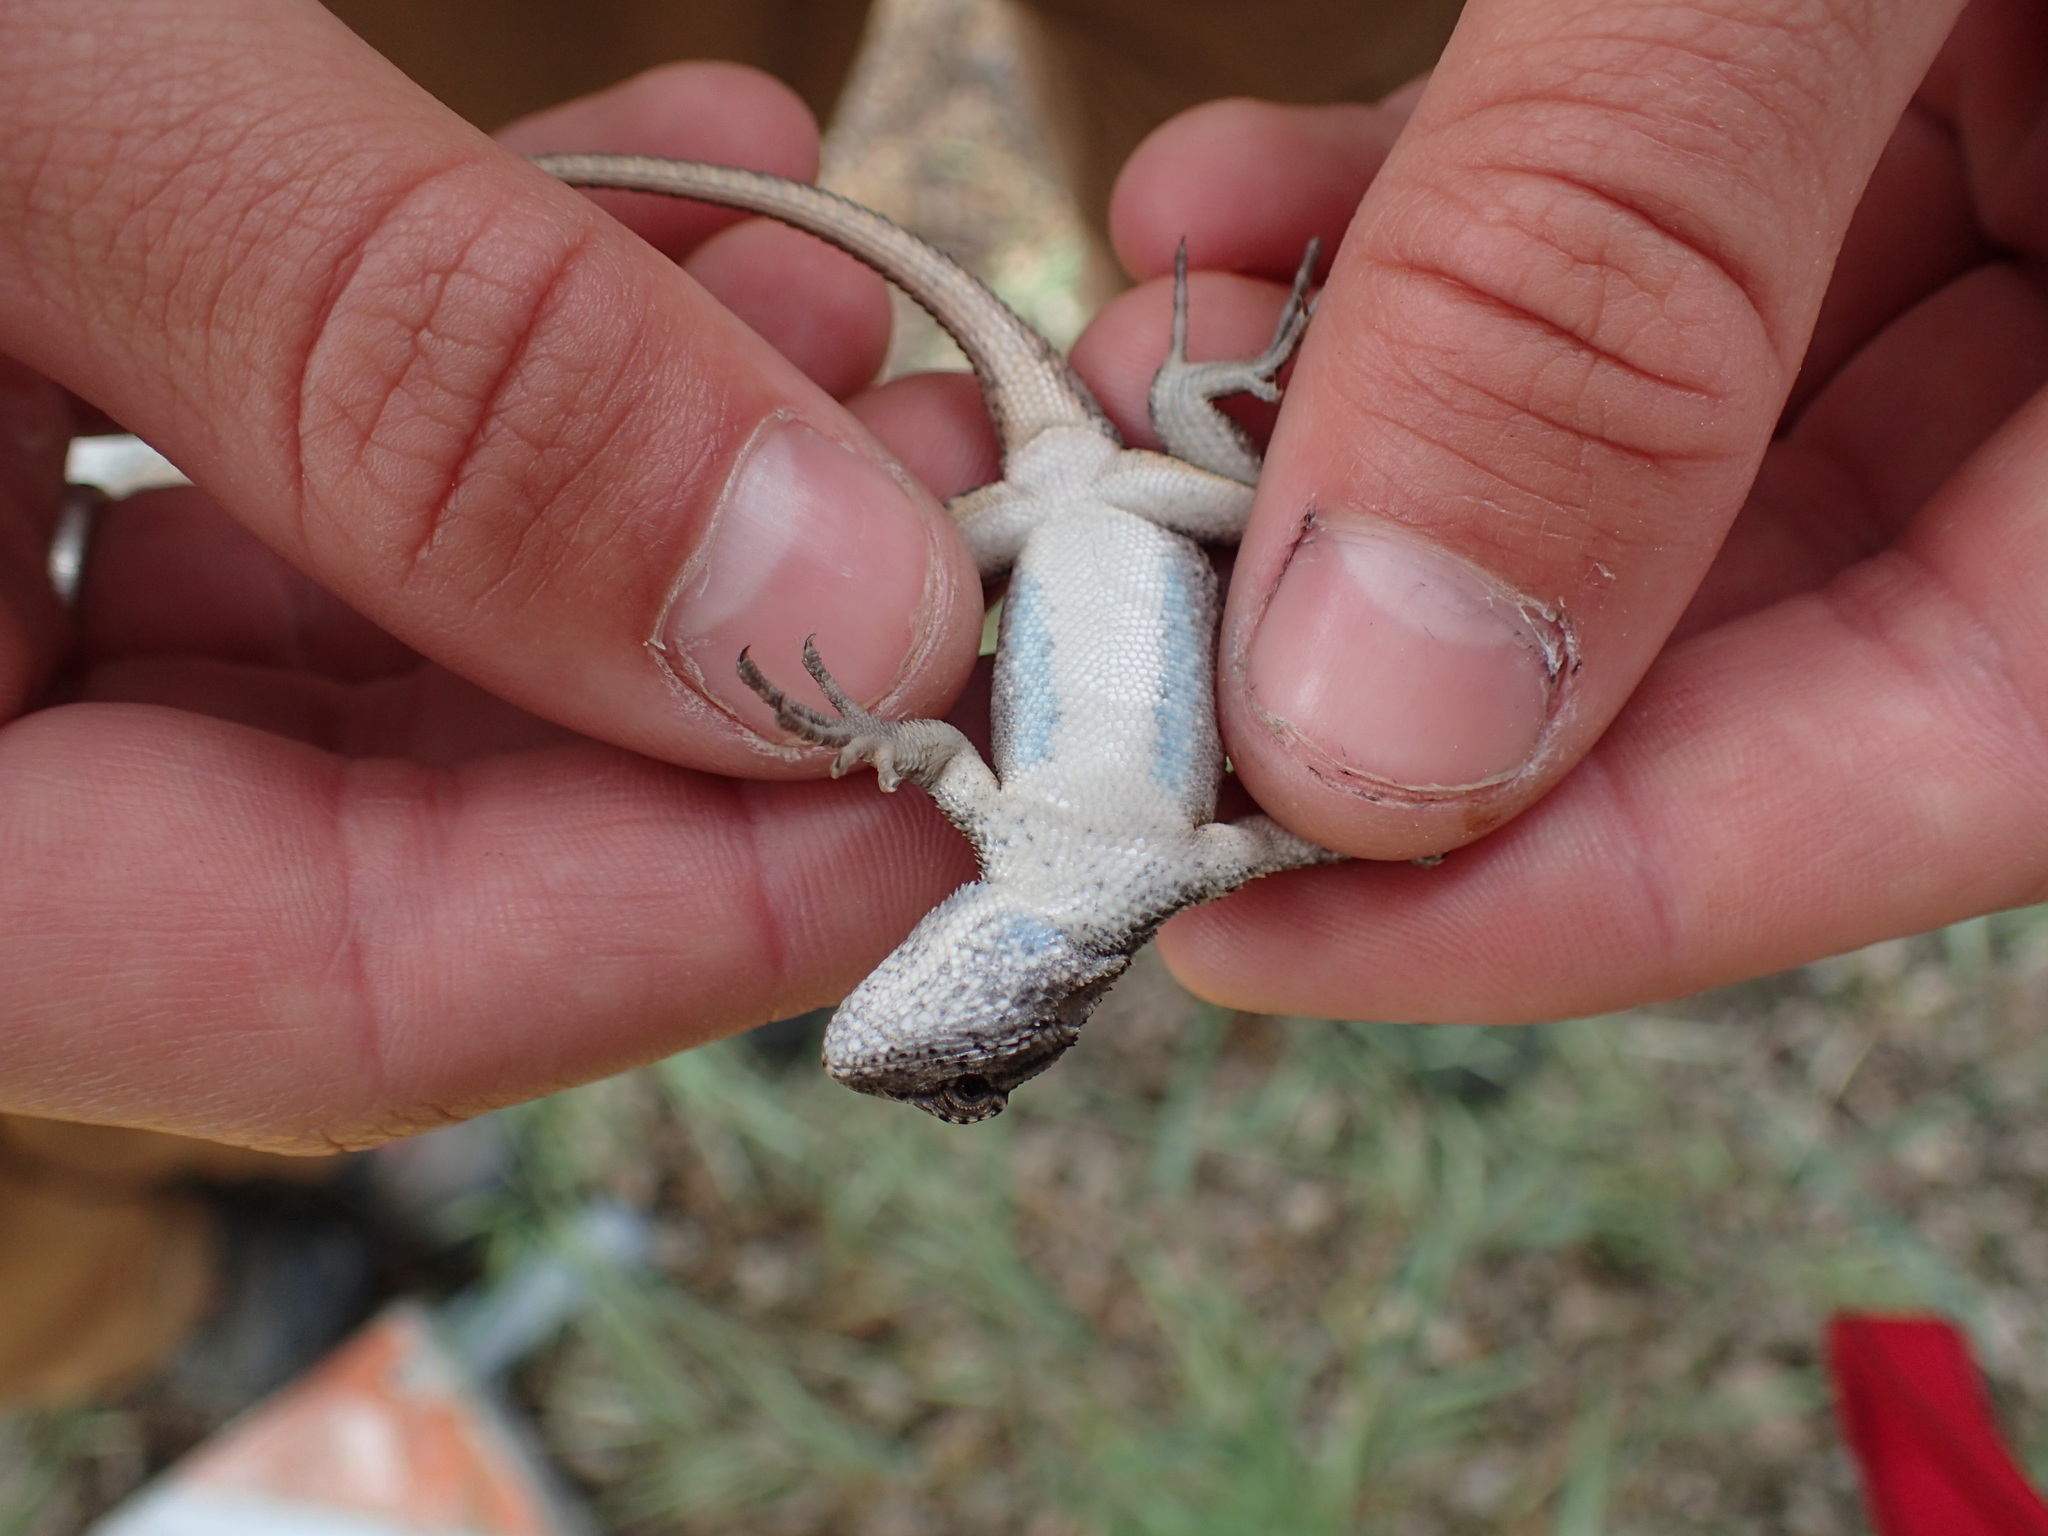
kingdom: Animalia
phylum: Chordata
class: Squamata
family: Phrynosomatidae
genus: Sceloporus
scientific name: Sceloporus occidentalis
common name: Western fence lizard
